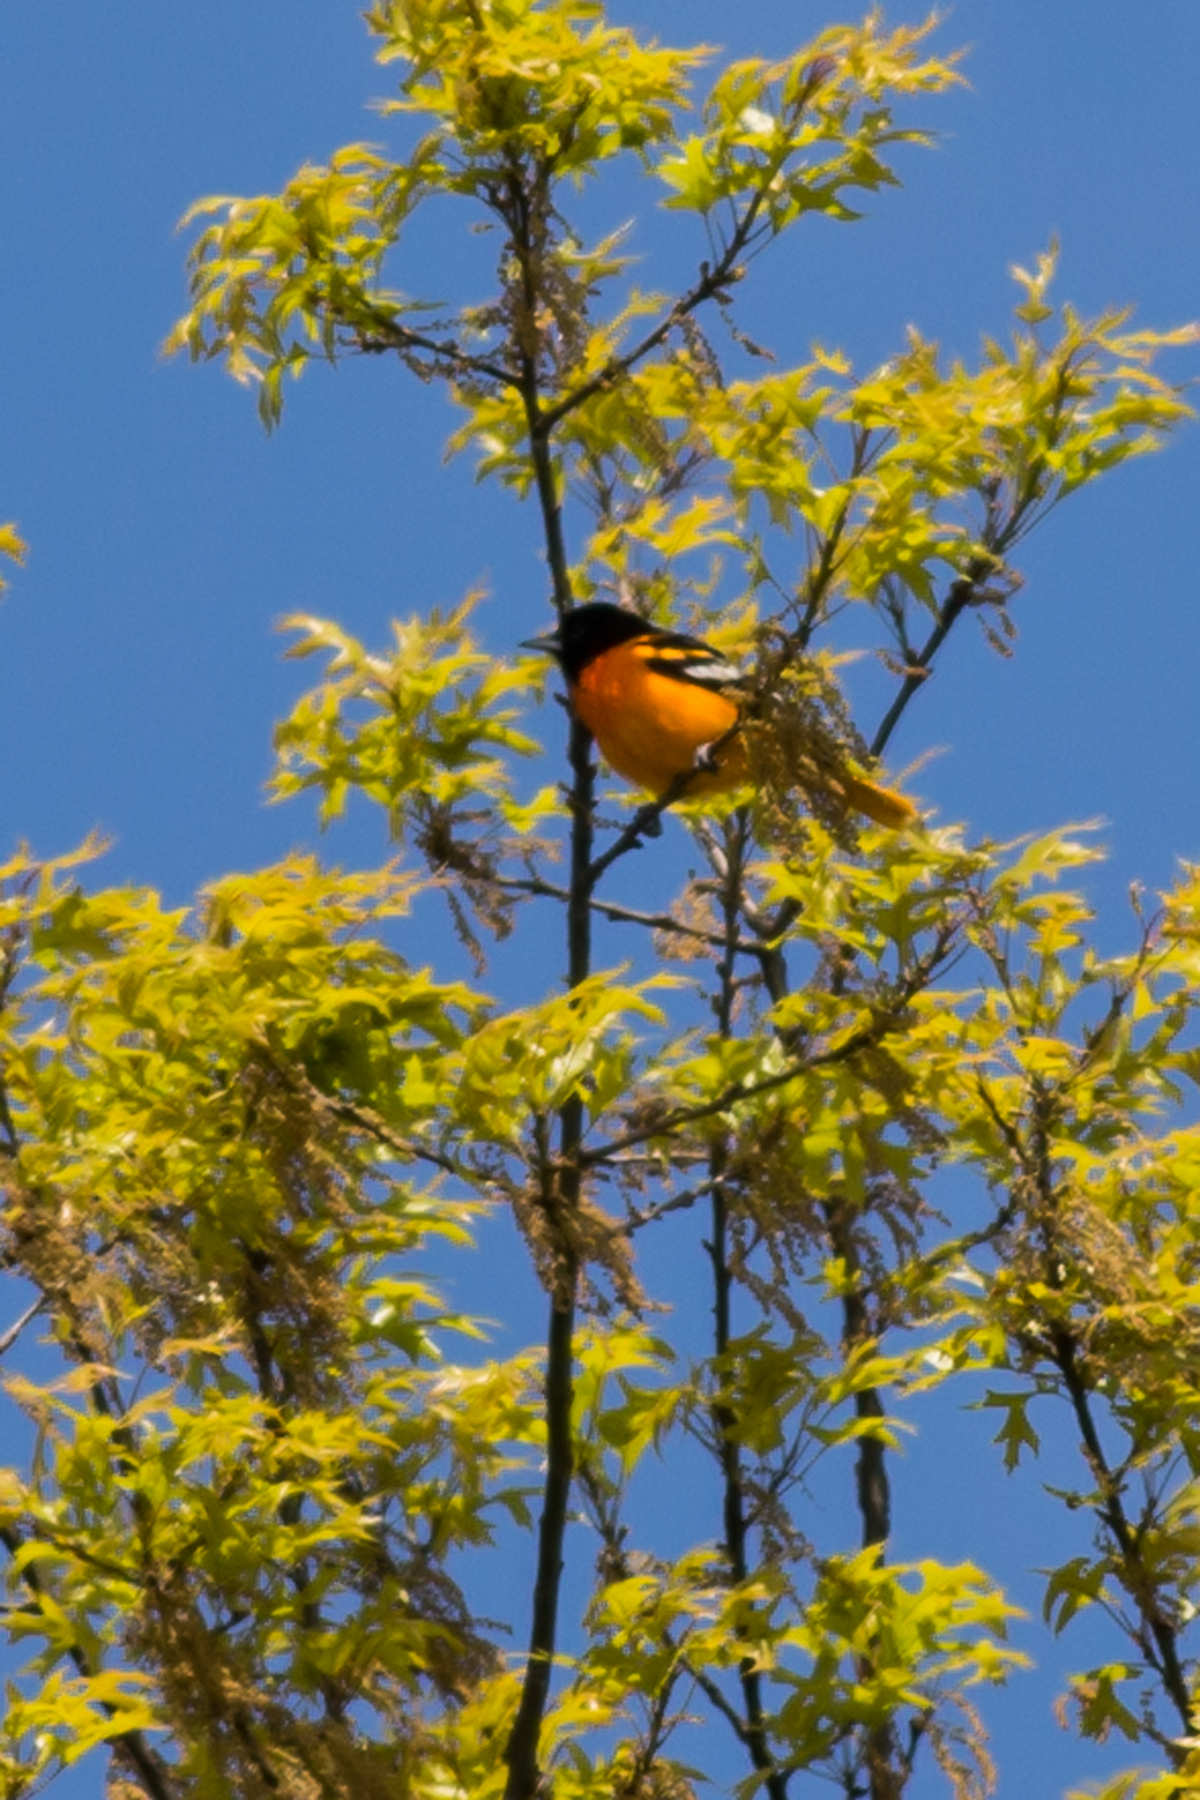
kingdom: Animalia
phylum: Chordata
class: Aves
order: Passeriformes
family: Icteridae
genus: Icterus
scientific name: Icterus galbula
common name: Baltimore oriole
